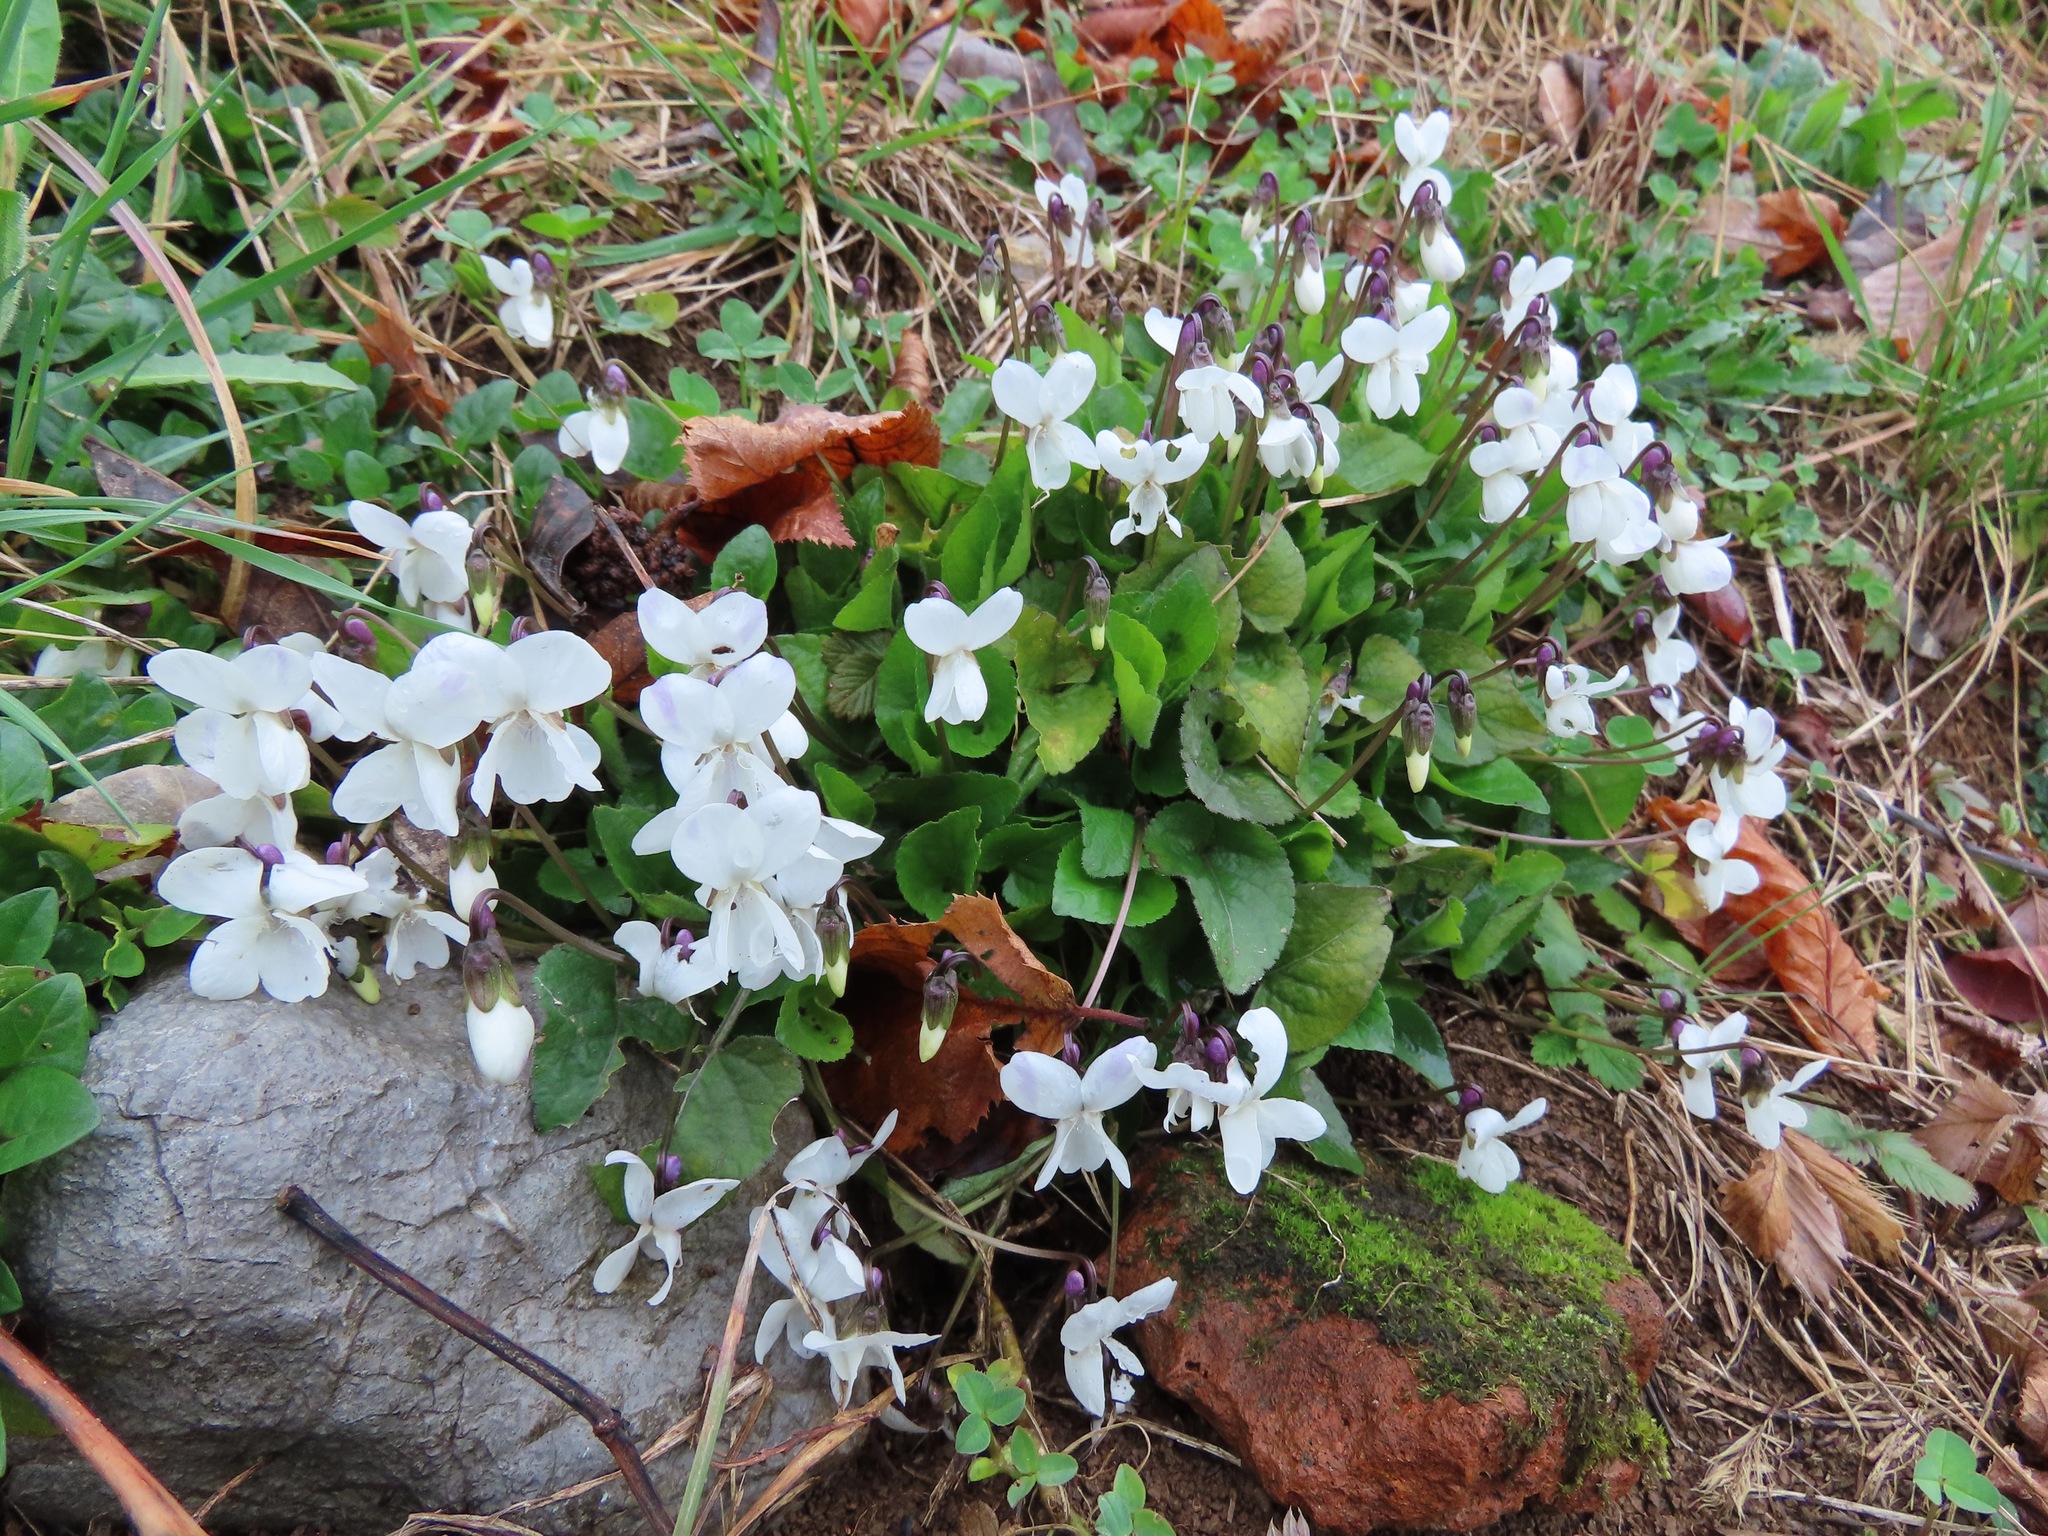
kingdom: Plantae
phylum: Tracheophyta
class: Magnoliopsida
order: Malpighiales
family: Violaceae
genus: Viola
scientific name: Viola alba
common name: White violet
